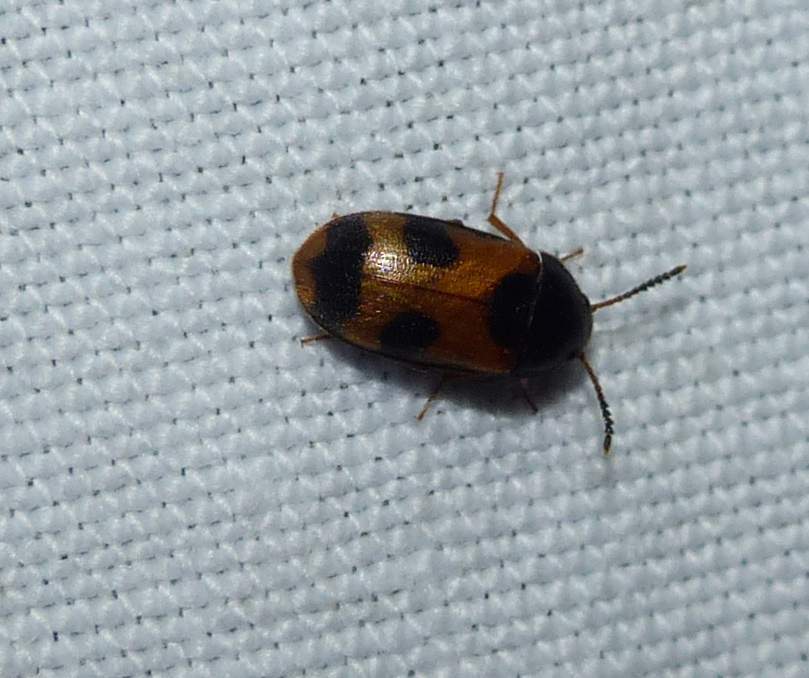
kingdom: Animalia
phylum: Arthropoda
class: Insecta
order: Coleoptera
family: Mycetophagidae
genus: Mycetophagus
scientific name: Mycetophagus punctatus
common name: Hairy fungus beetle
